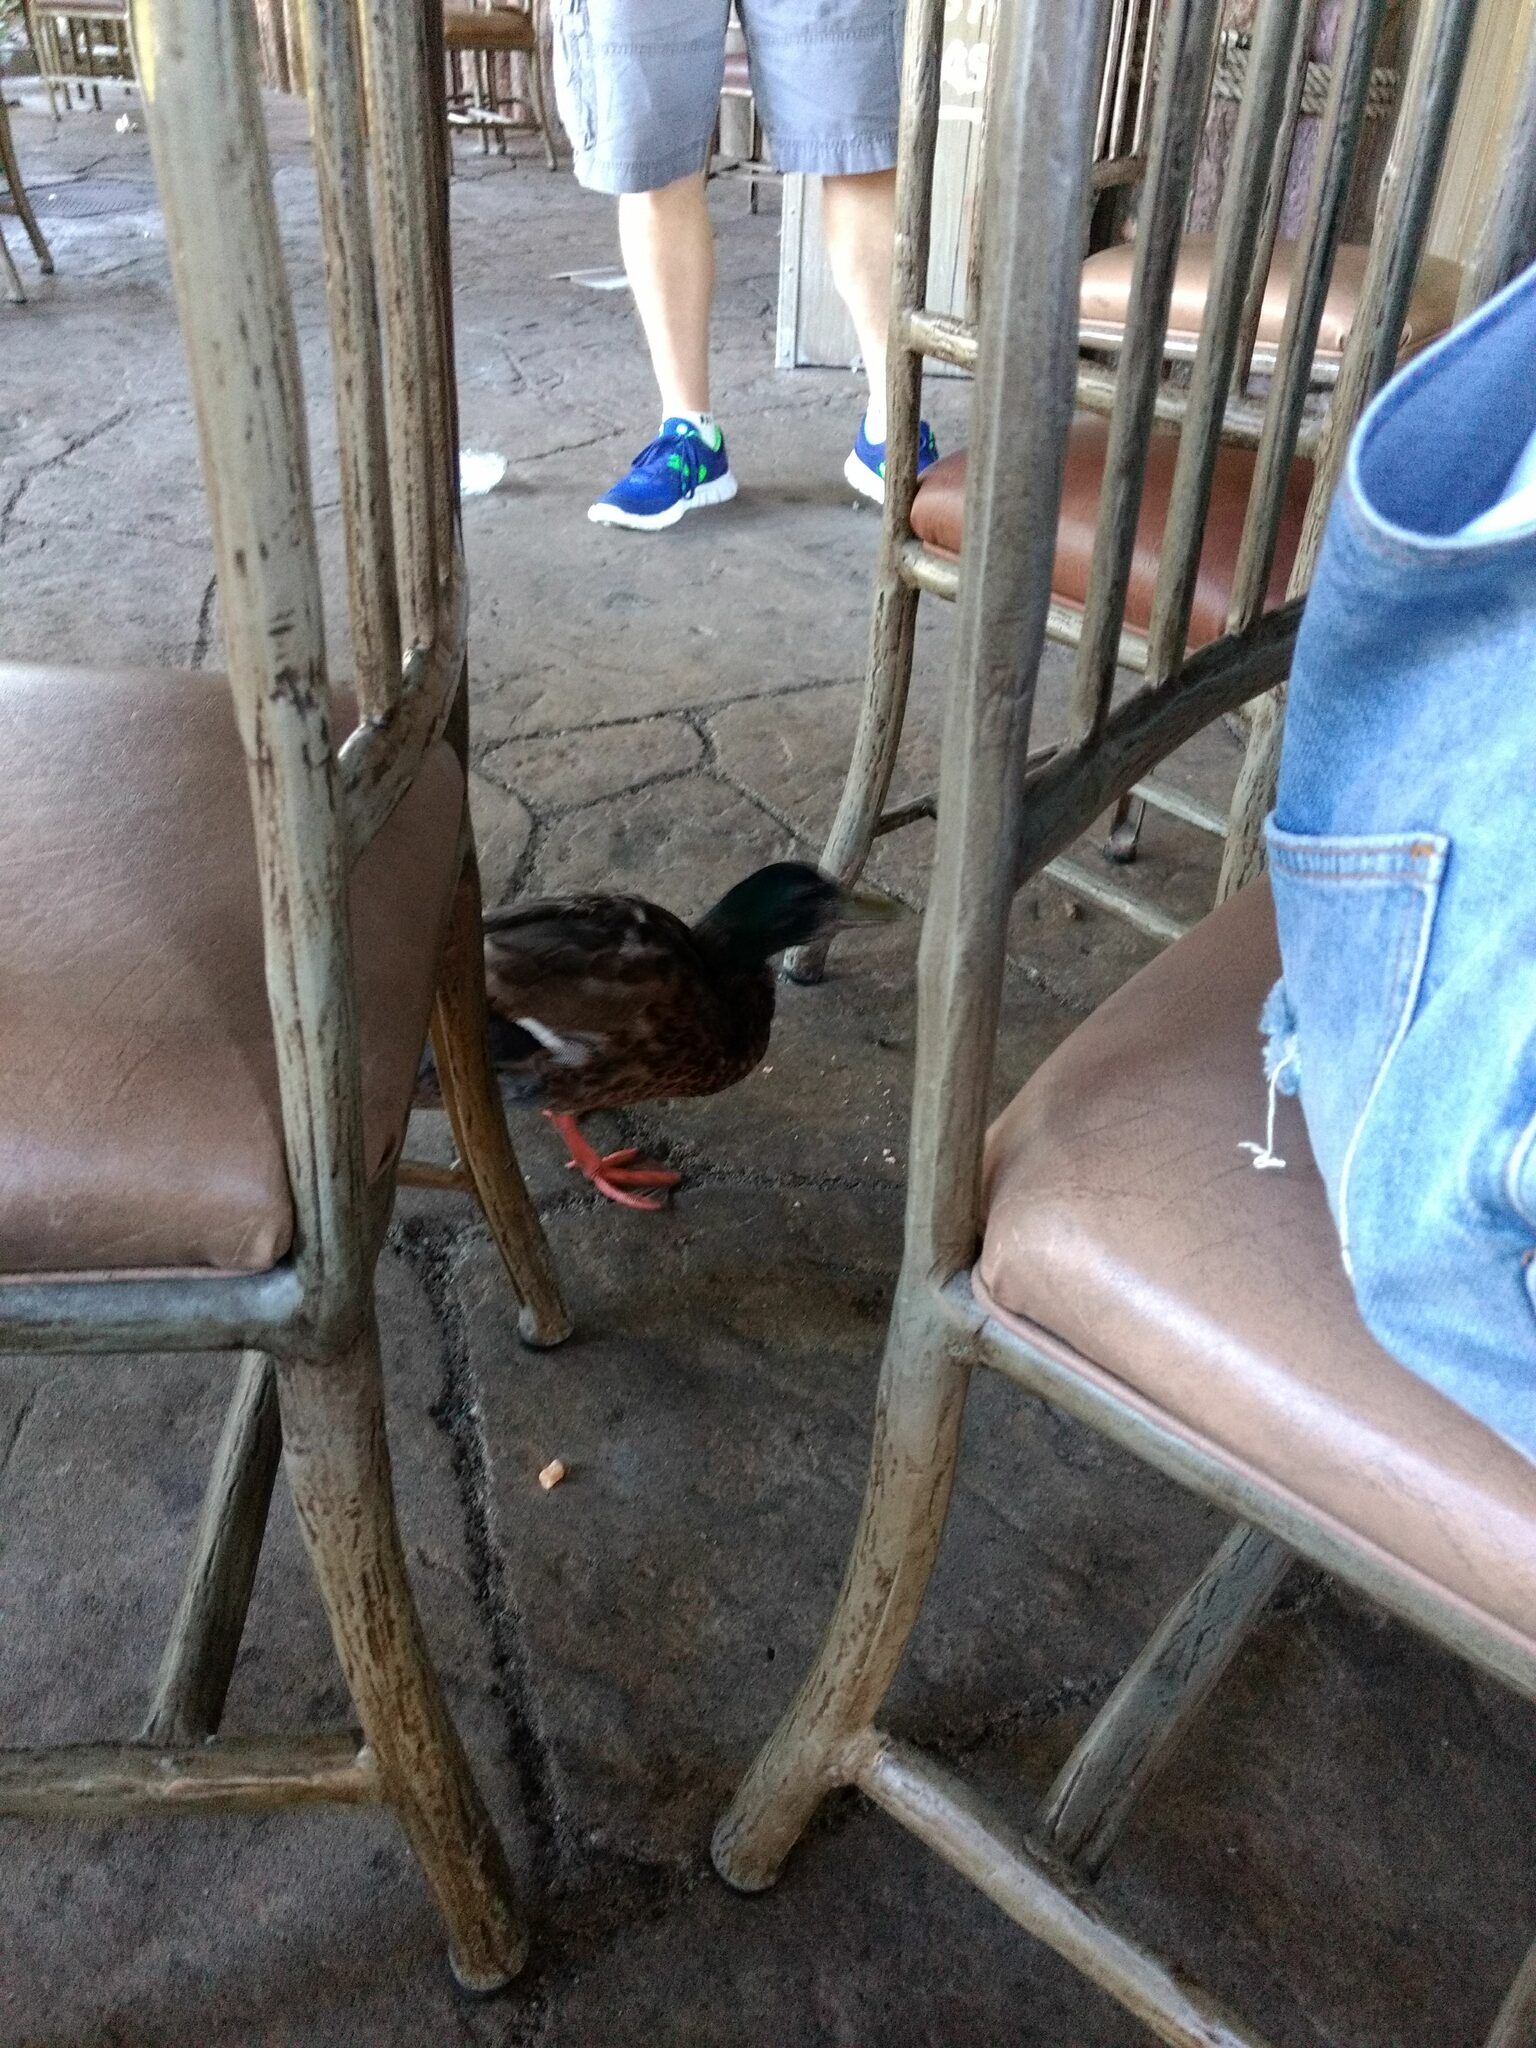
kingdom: Animalia
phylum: Chordata
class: Aves
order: Anseriformes
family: Anatidae
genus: Anas
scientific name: Anas platyrhynchos
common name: Mallard
